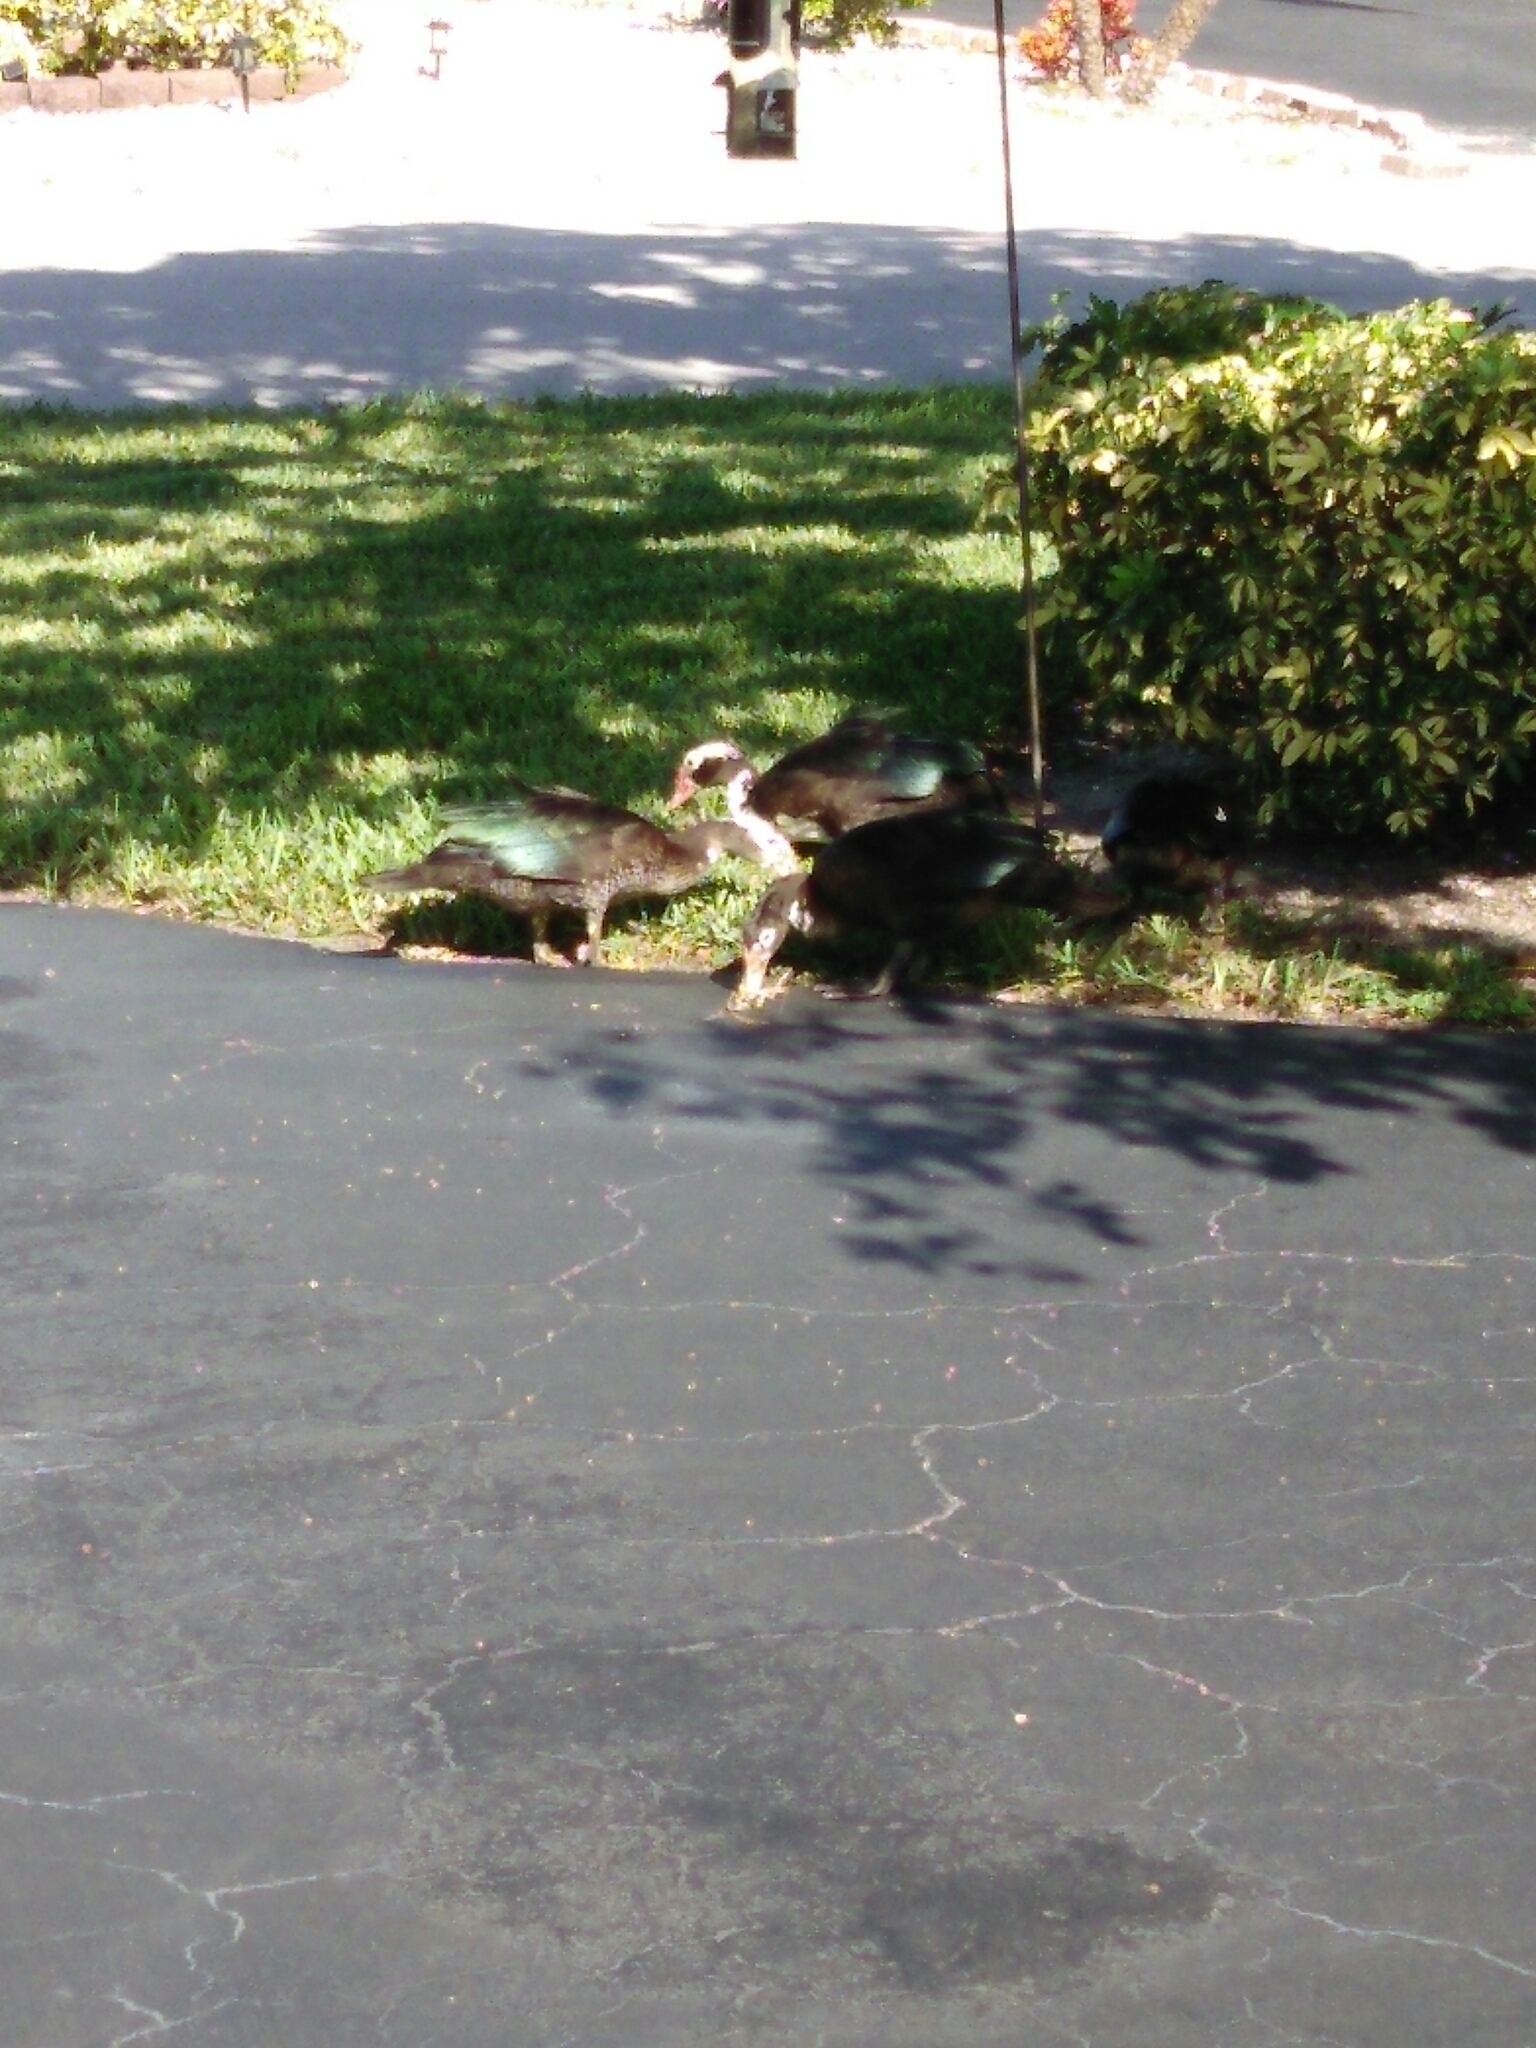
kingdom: Animalia
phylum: Chordata
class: Aves
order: Anseriformes
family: Anatidae
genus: Cairina
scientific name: Cairina moschata
